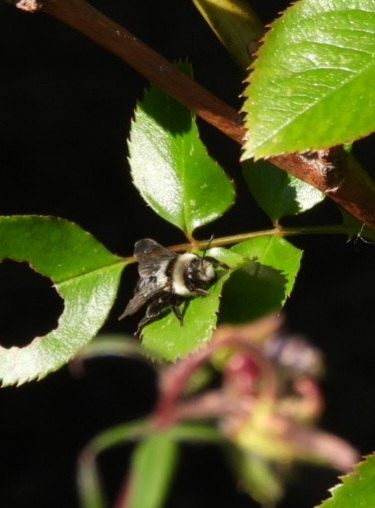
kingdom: Animalia
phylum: Arthropoda
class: Insecta
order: Hymenoptera
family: Andrenidae
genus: Andrena
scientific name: Andrena cineraria
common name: Ashy mining bee
